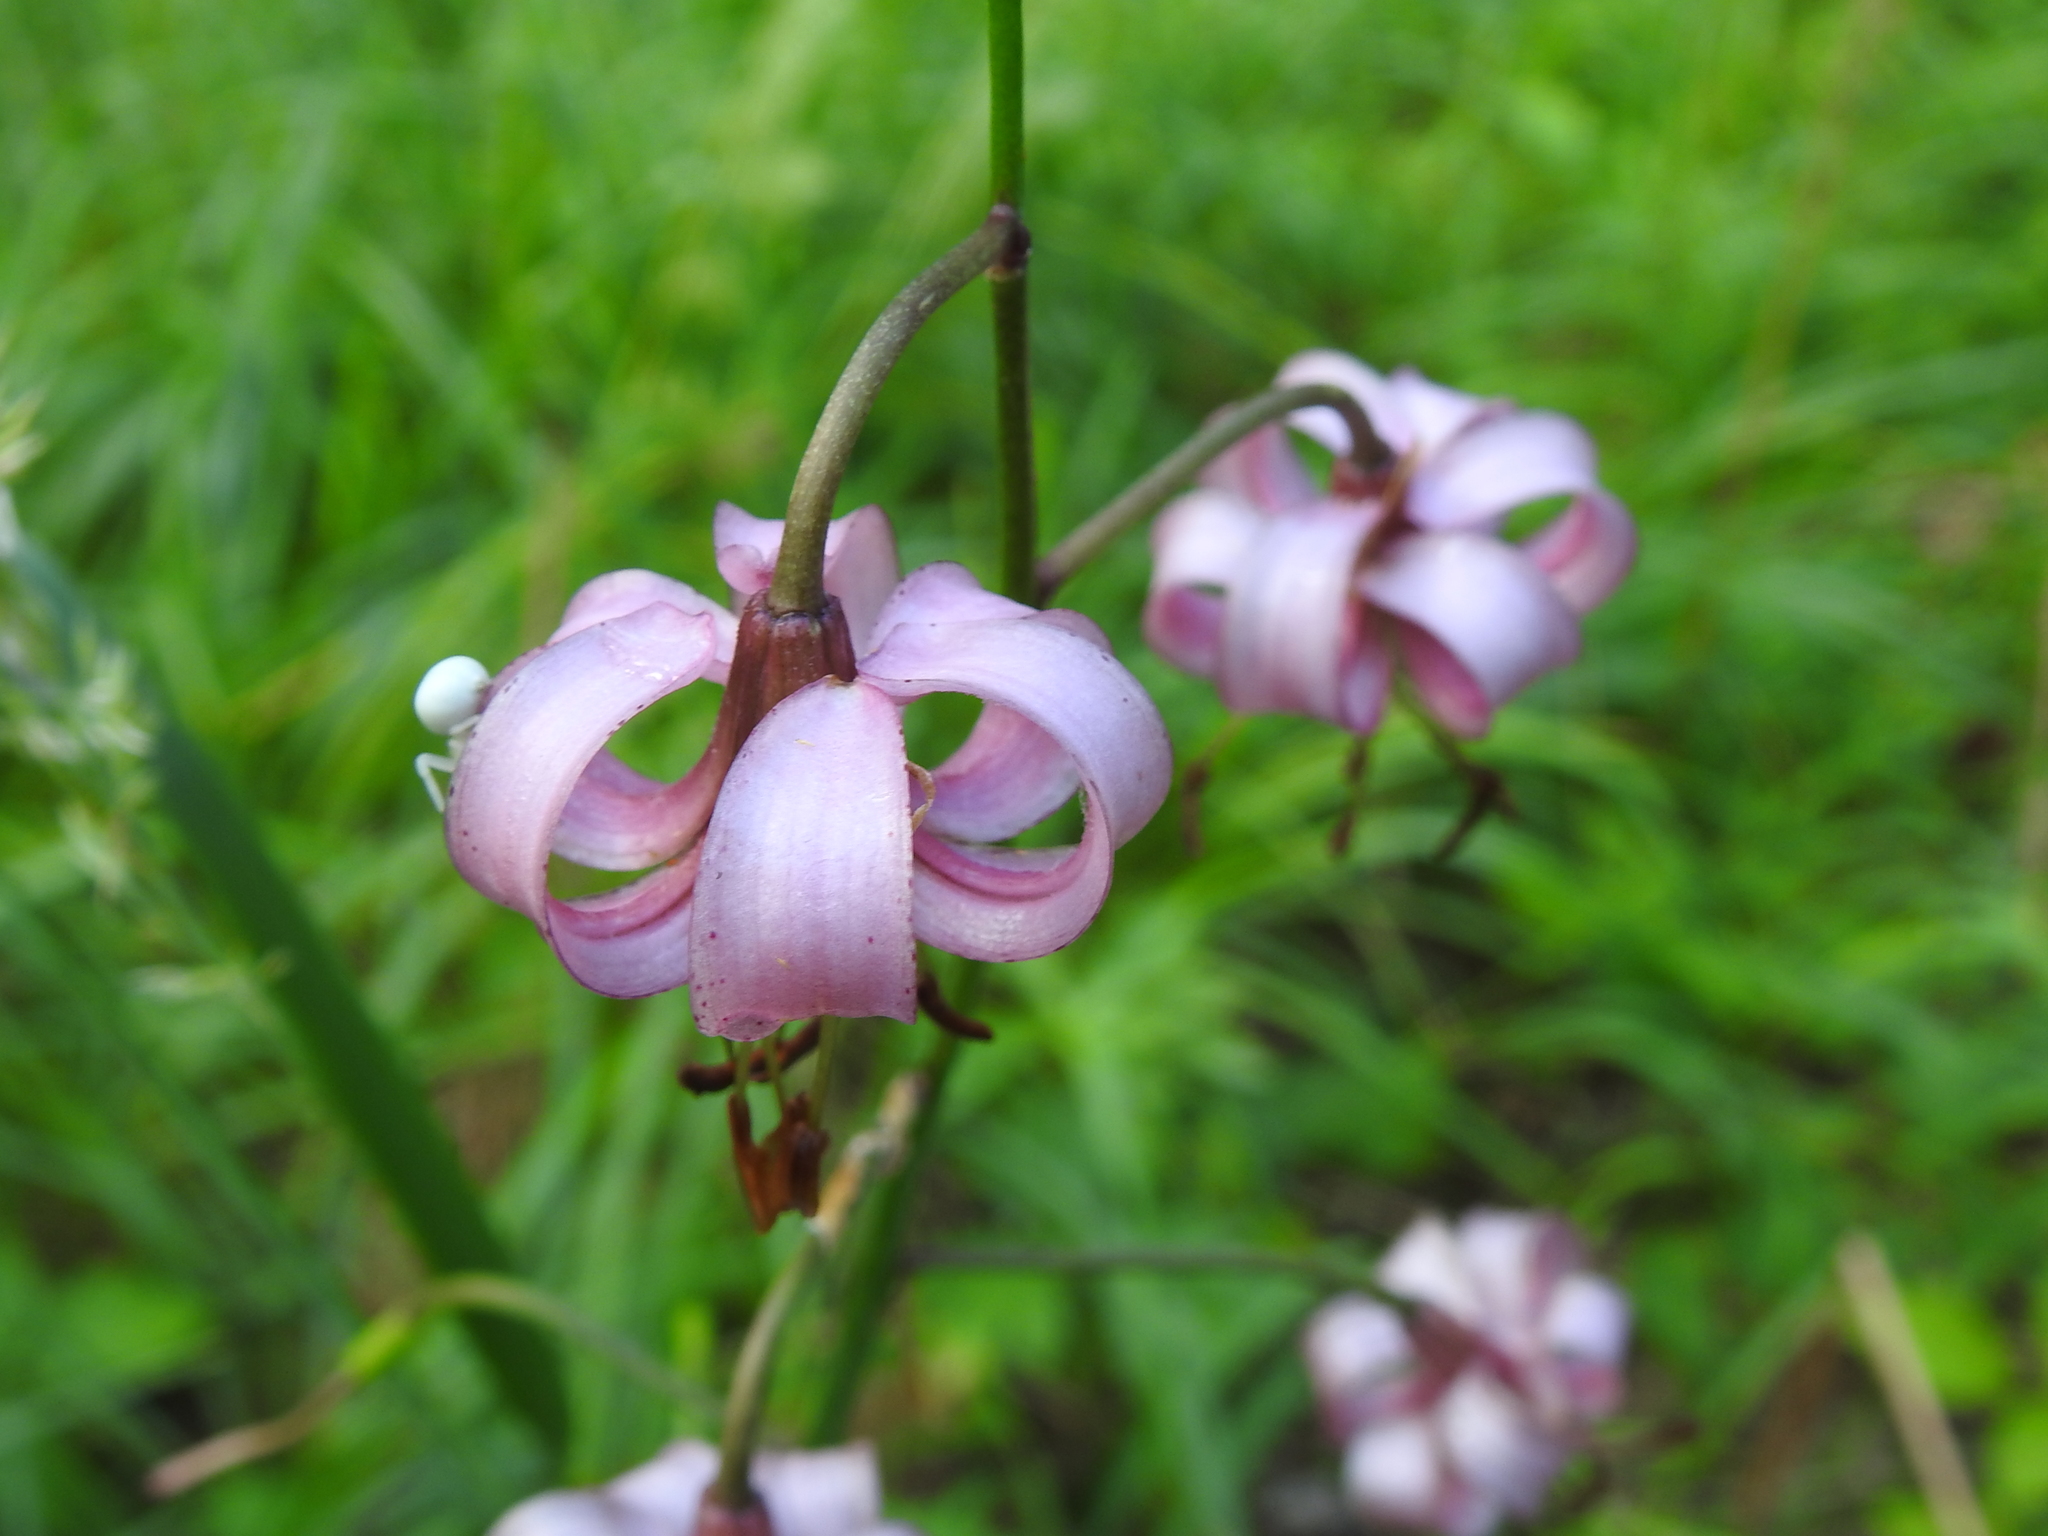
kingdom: Plantae
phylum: Tracheophyta
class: Liliopsida
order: Liliales
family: Liliaceae
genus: Lilium
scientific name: Lilium martagon
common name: Martagon lily
